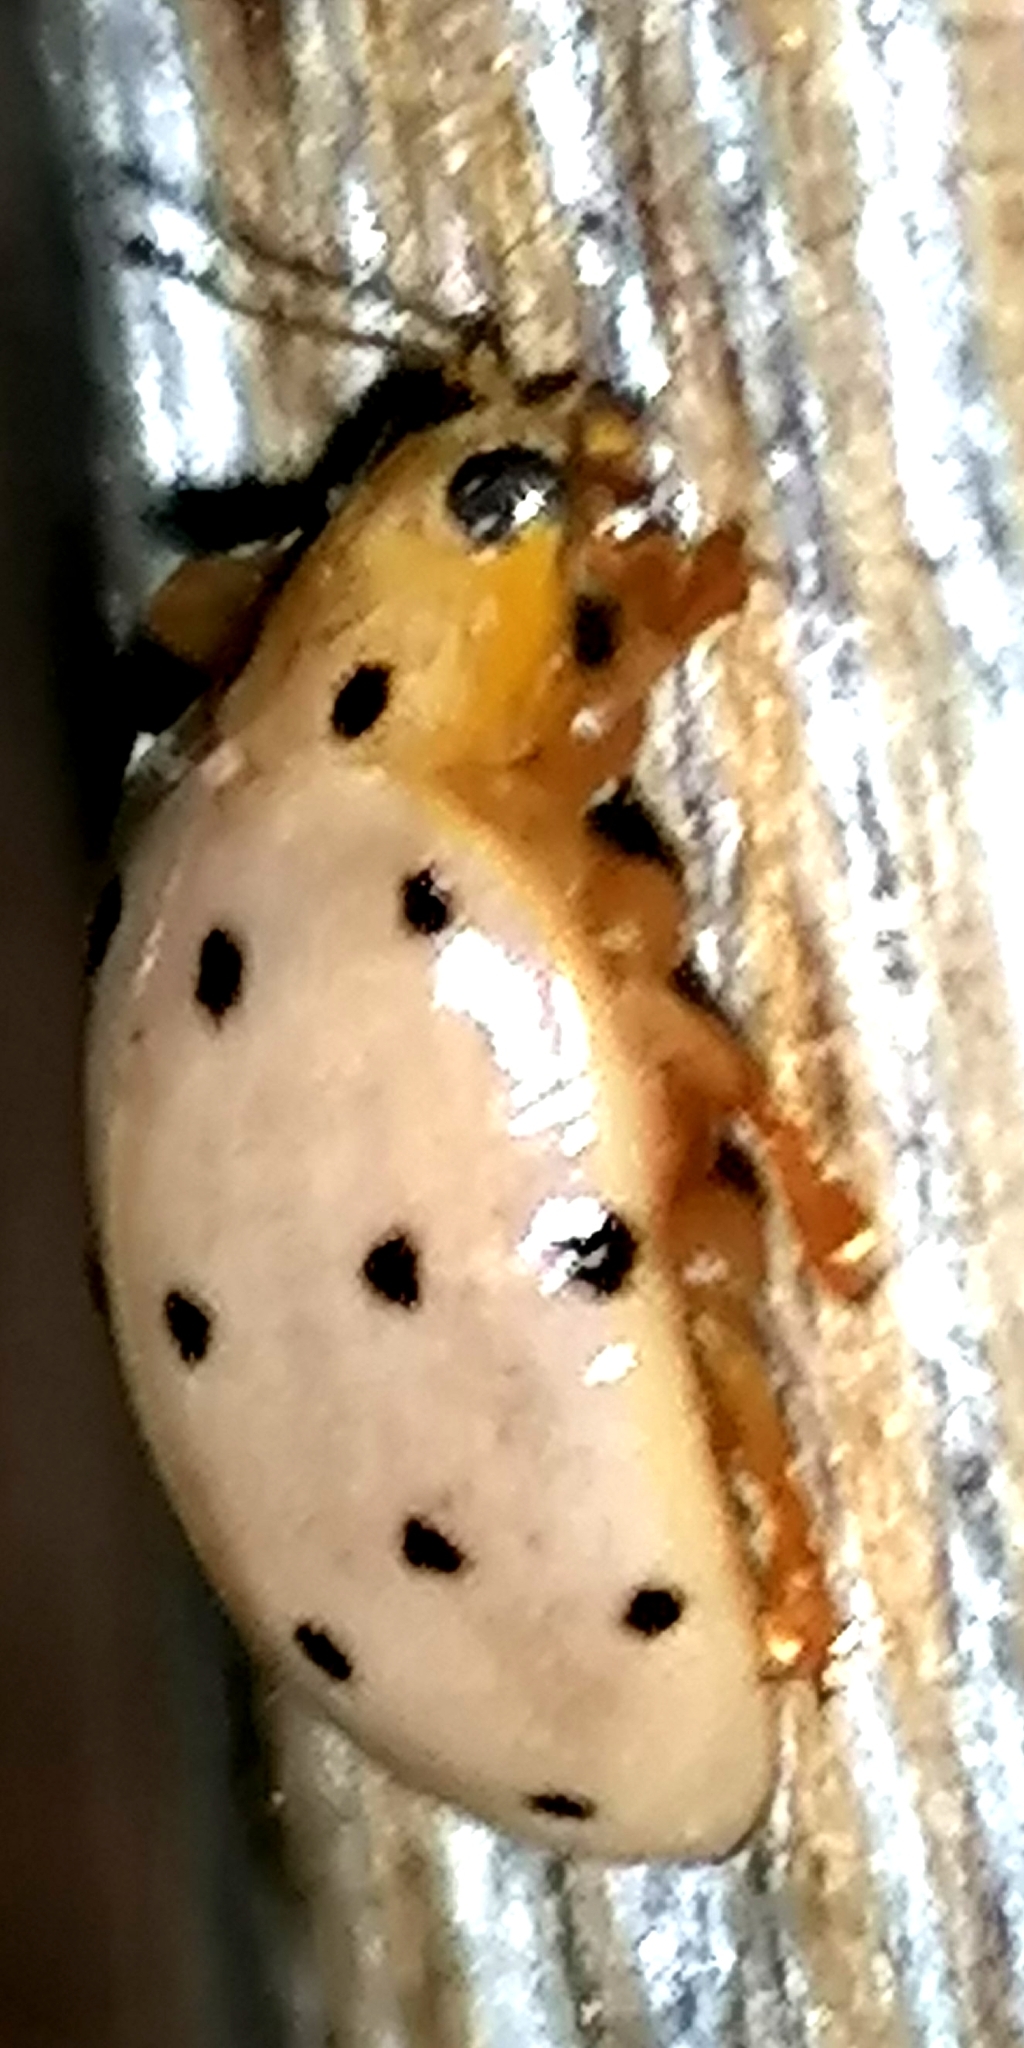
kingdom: Animalia
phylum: Arthropoda
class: Insecta
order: Coleoptera
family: Coccinellidae
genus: Neohalyzia
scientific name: Neohalyzia
